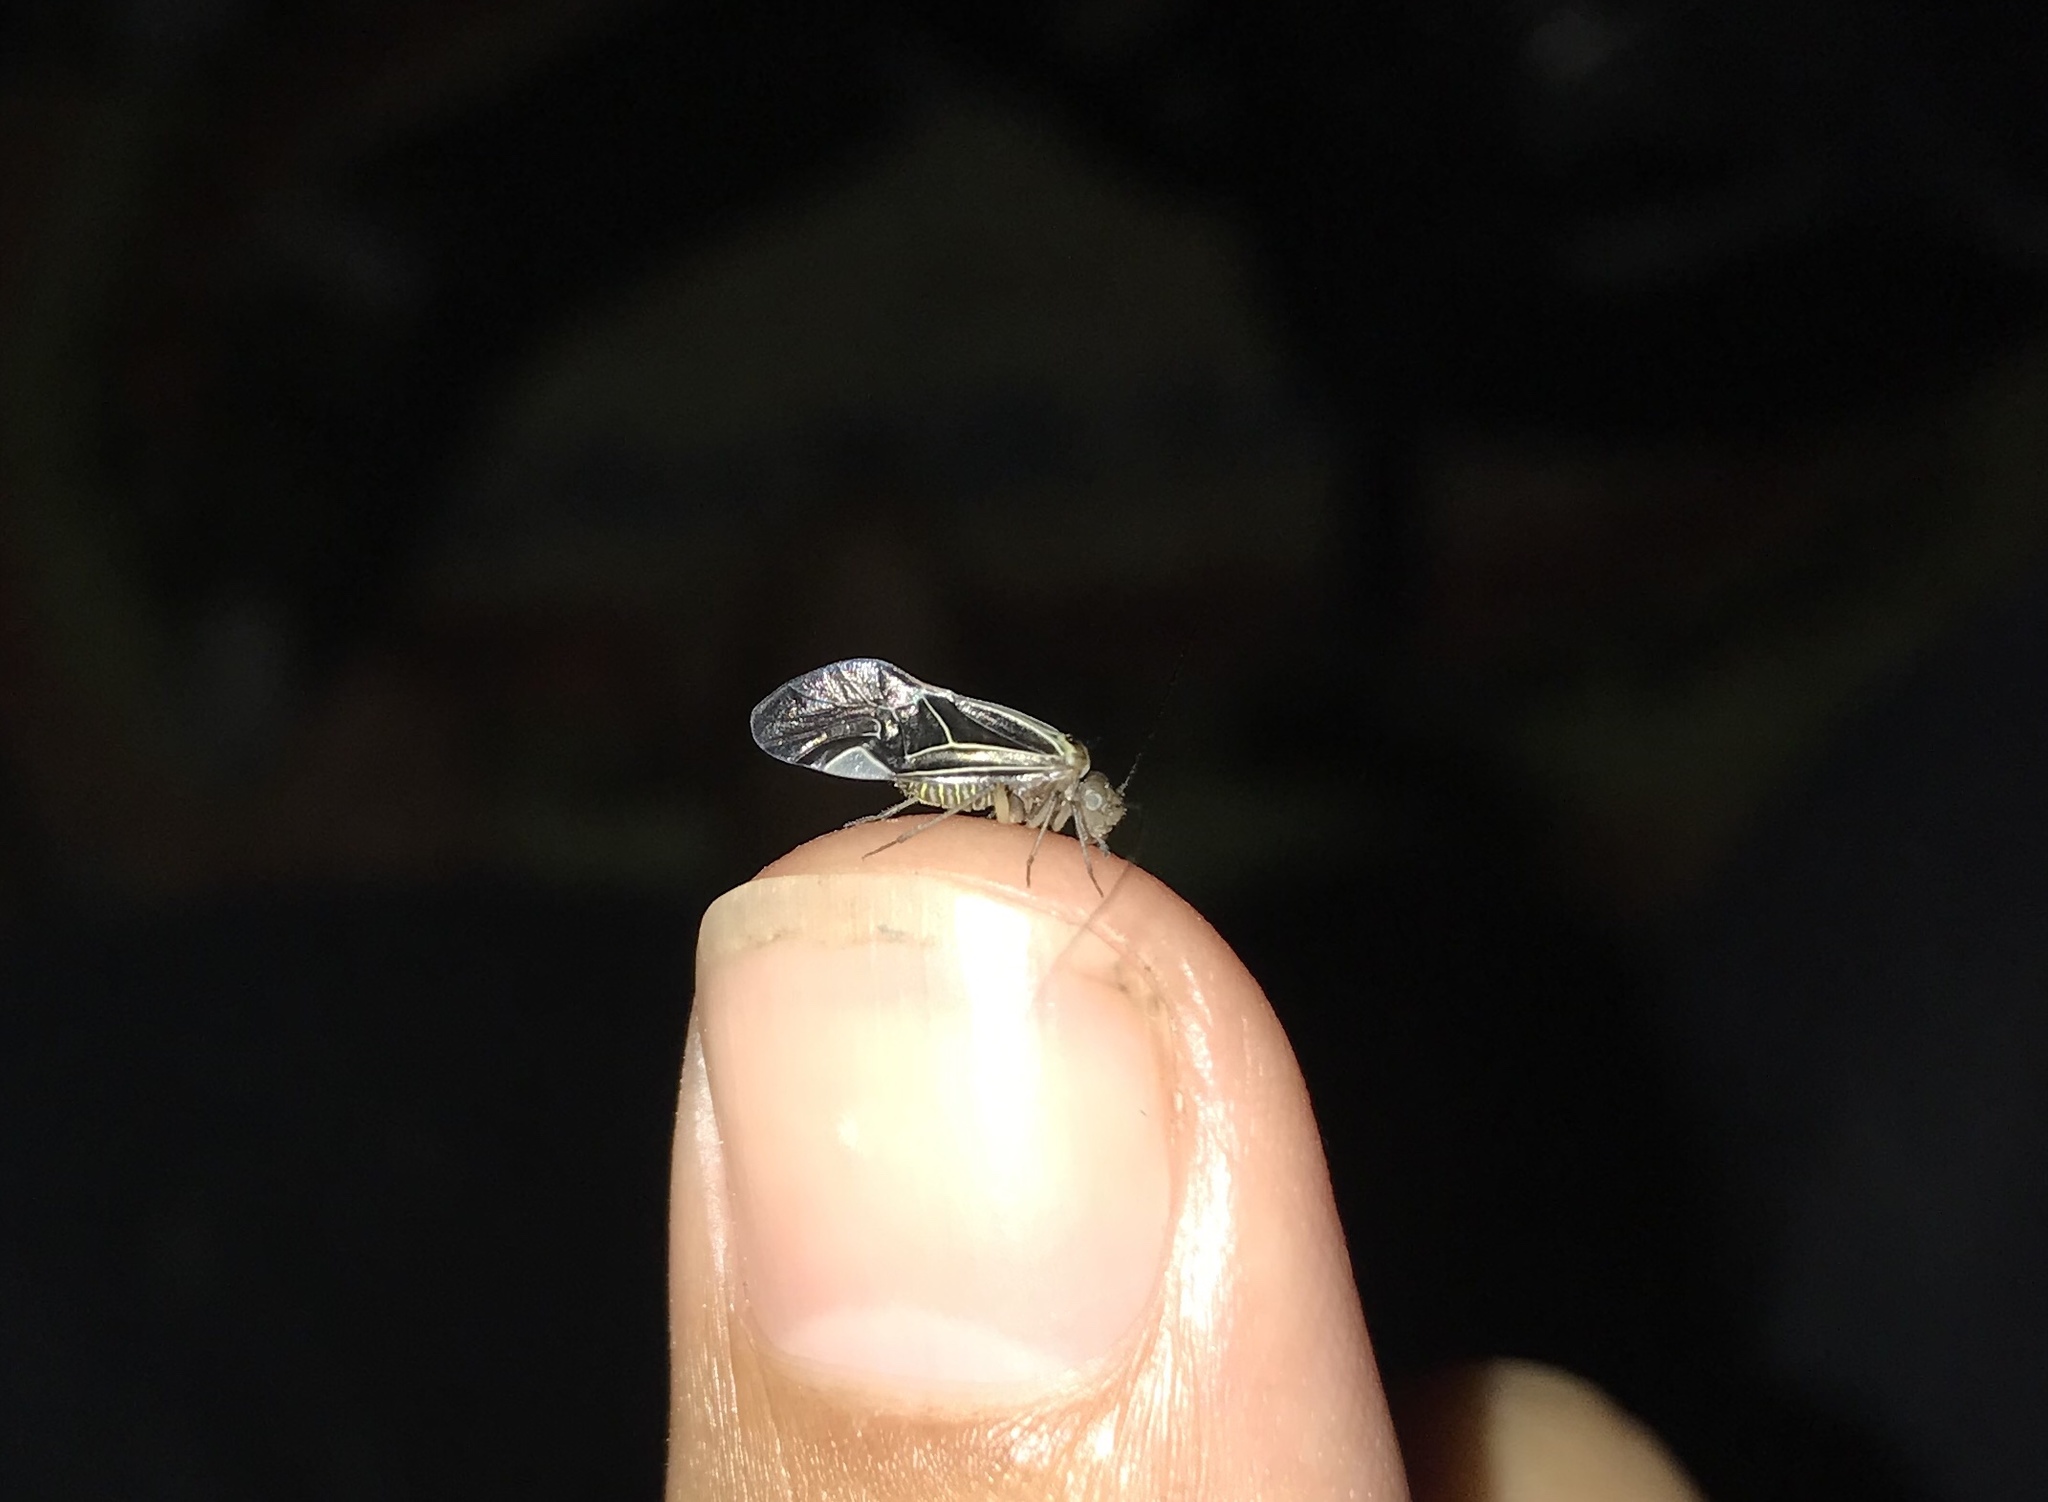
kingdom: Animalia
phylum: Arthropoda
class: Insecta
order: Psocodea
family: Psocidae
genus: Cerastipsocus
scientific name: Cerastipsocus venosus
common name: Tree cattle
